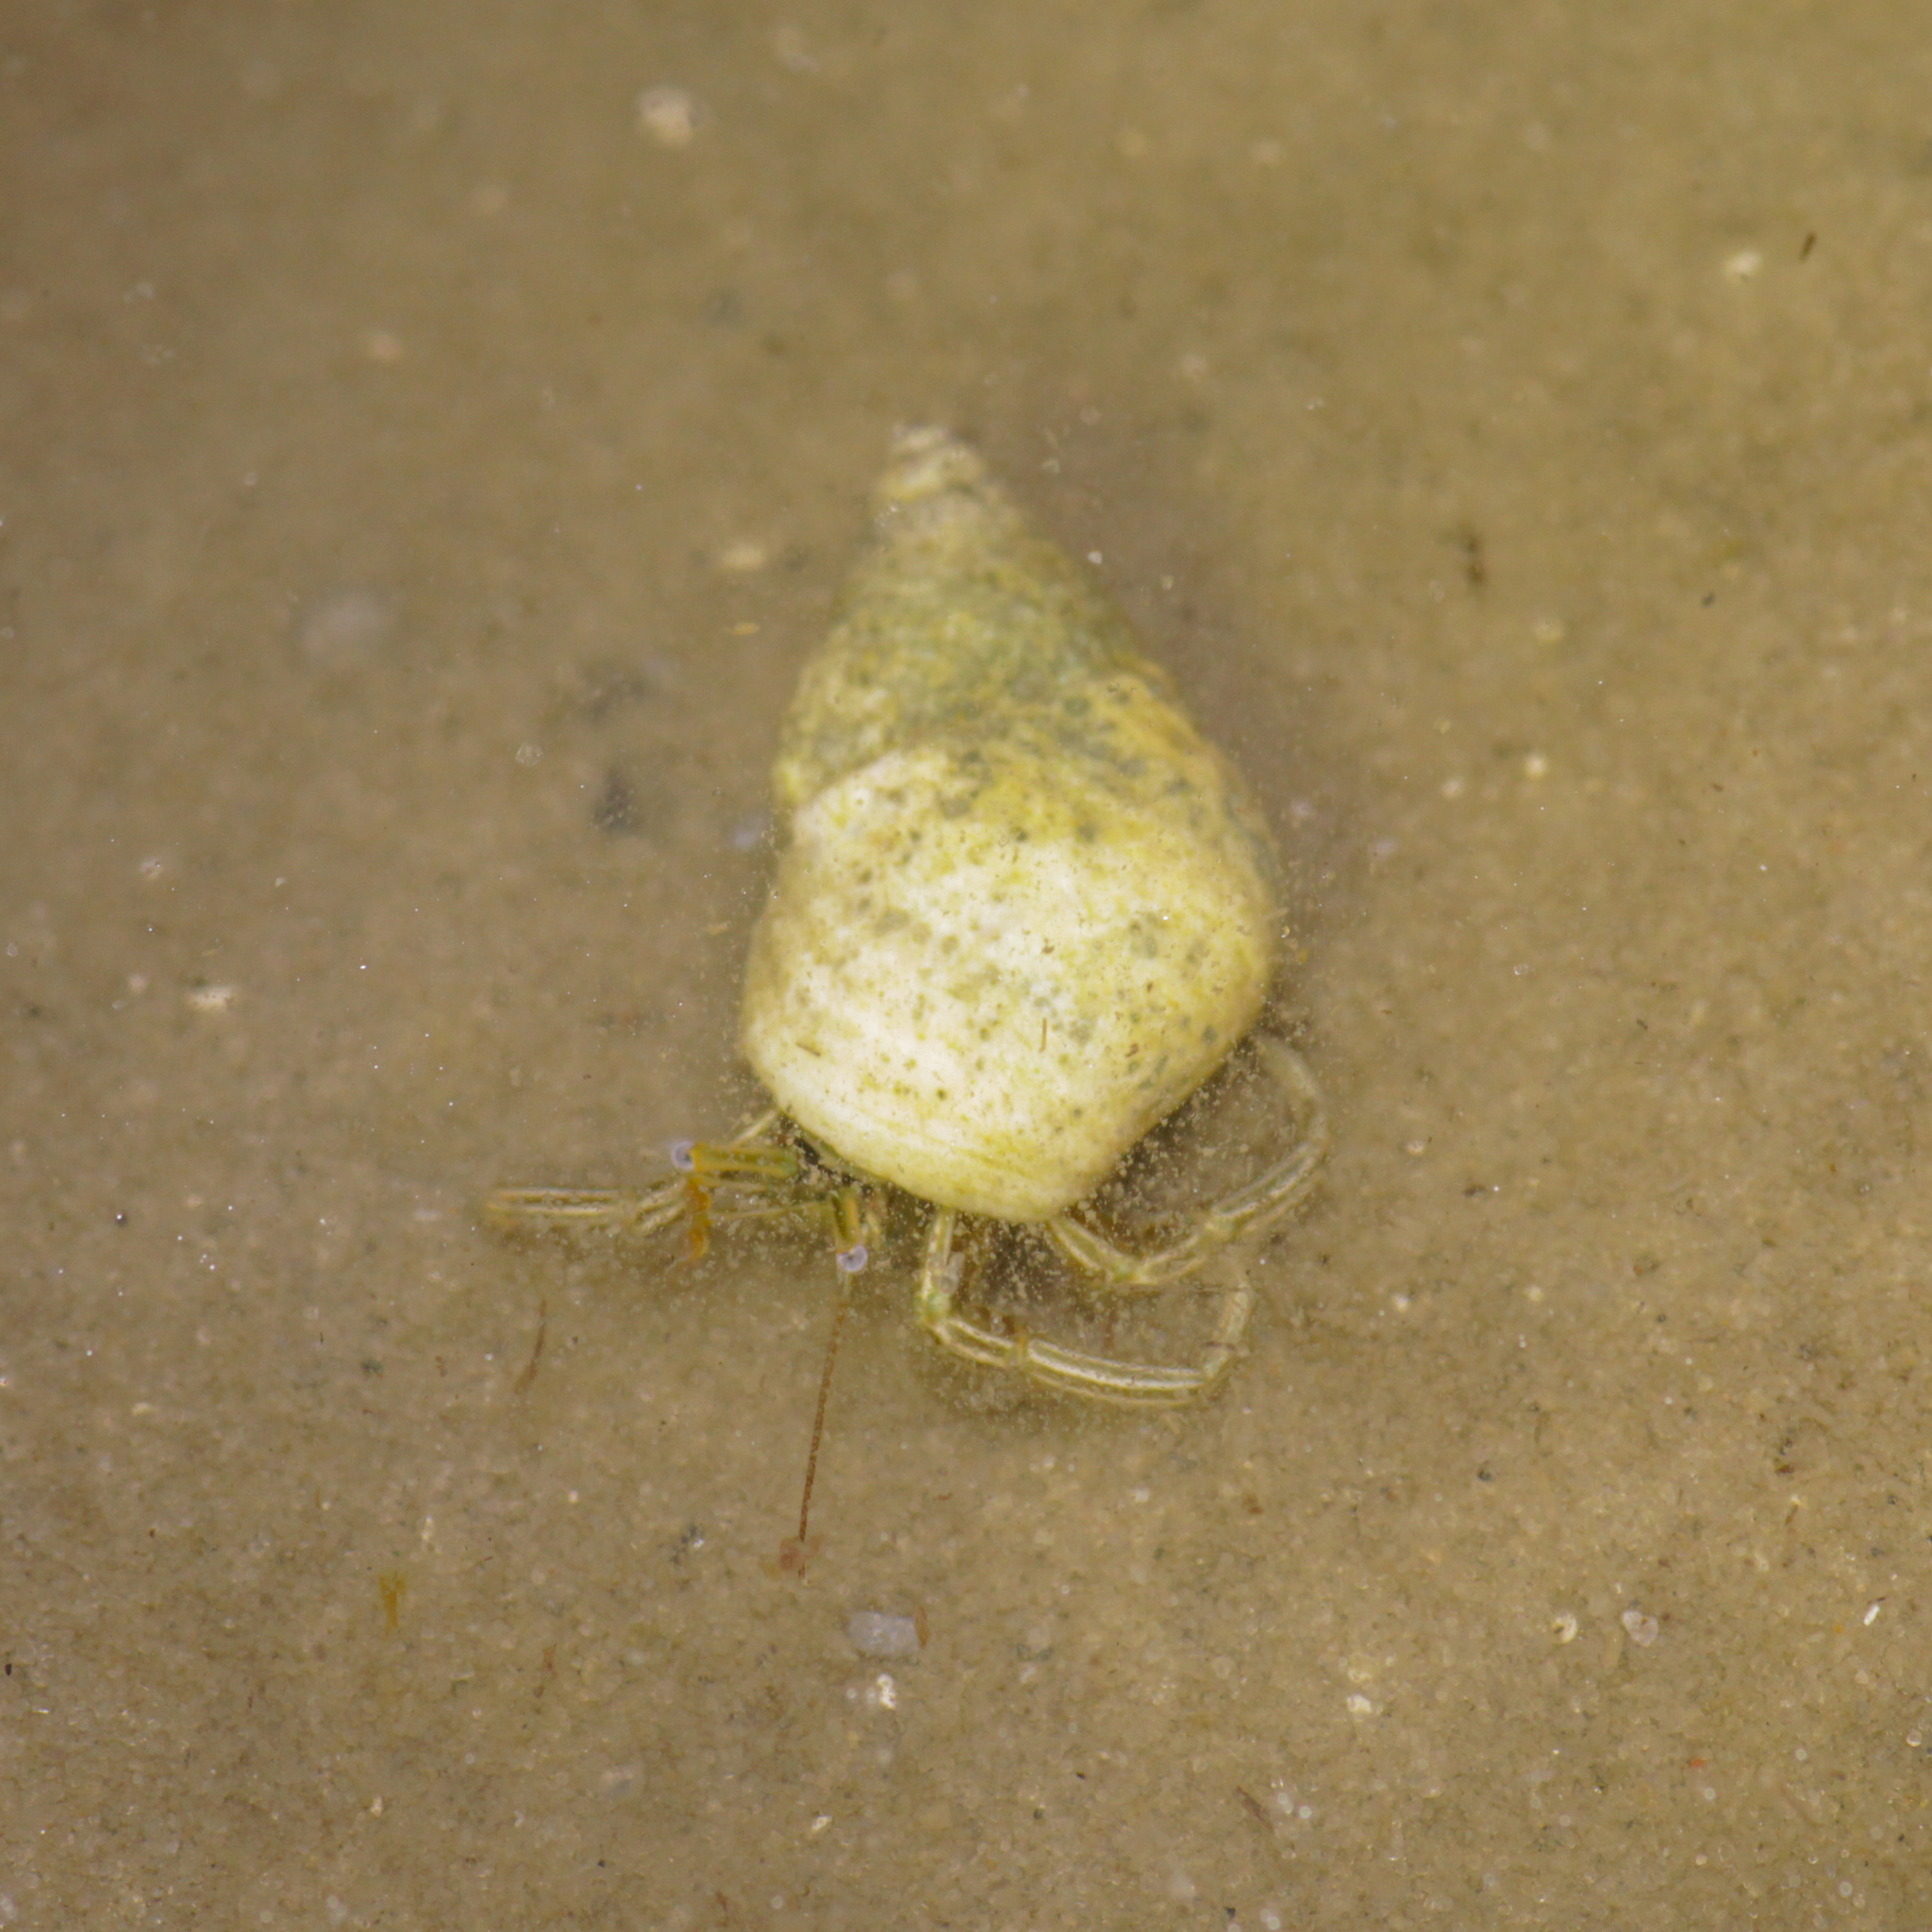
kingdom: Animalia
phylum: Arthropoda
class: Malacostraca
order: Decapoda
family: Diogenidae
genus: Clibanarius
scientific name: Clibanarius vittatus
